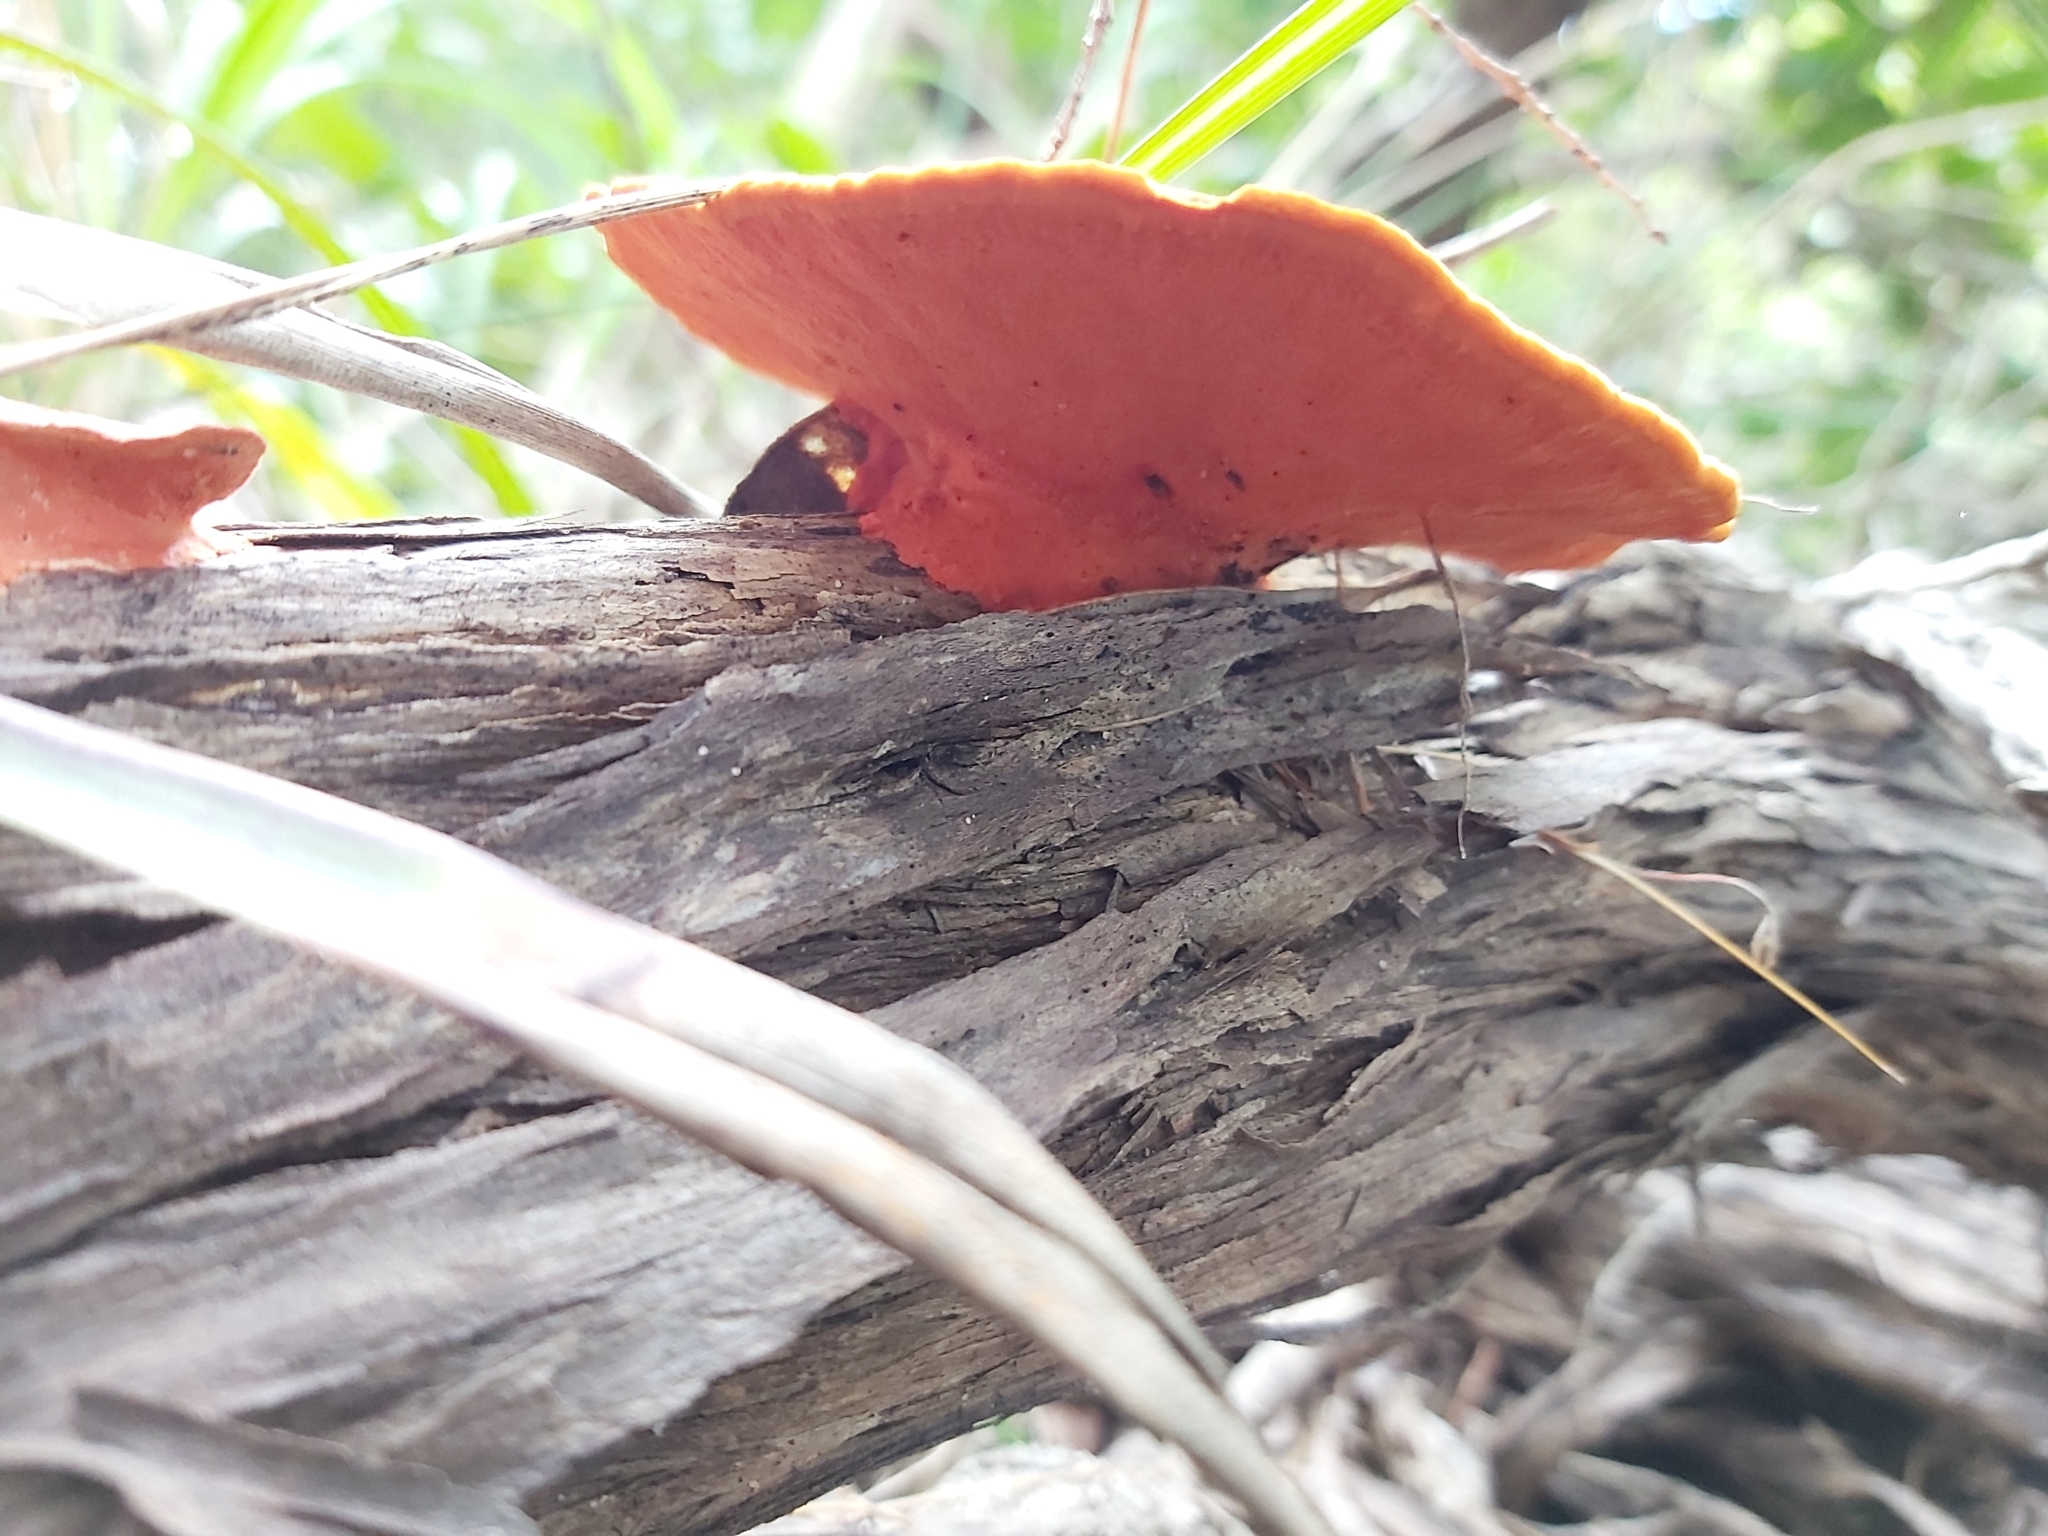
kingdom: Fungi
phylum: Basidiomycota
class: Agaricomycetes
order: Polyporales
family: Polyporaceae
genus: Trametes
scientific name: Trametes coccinea
